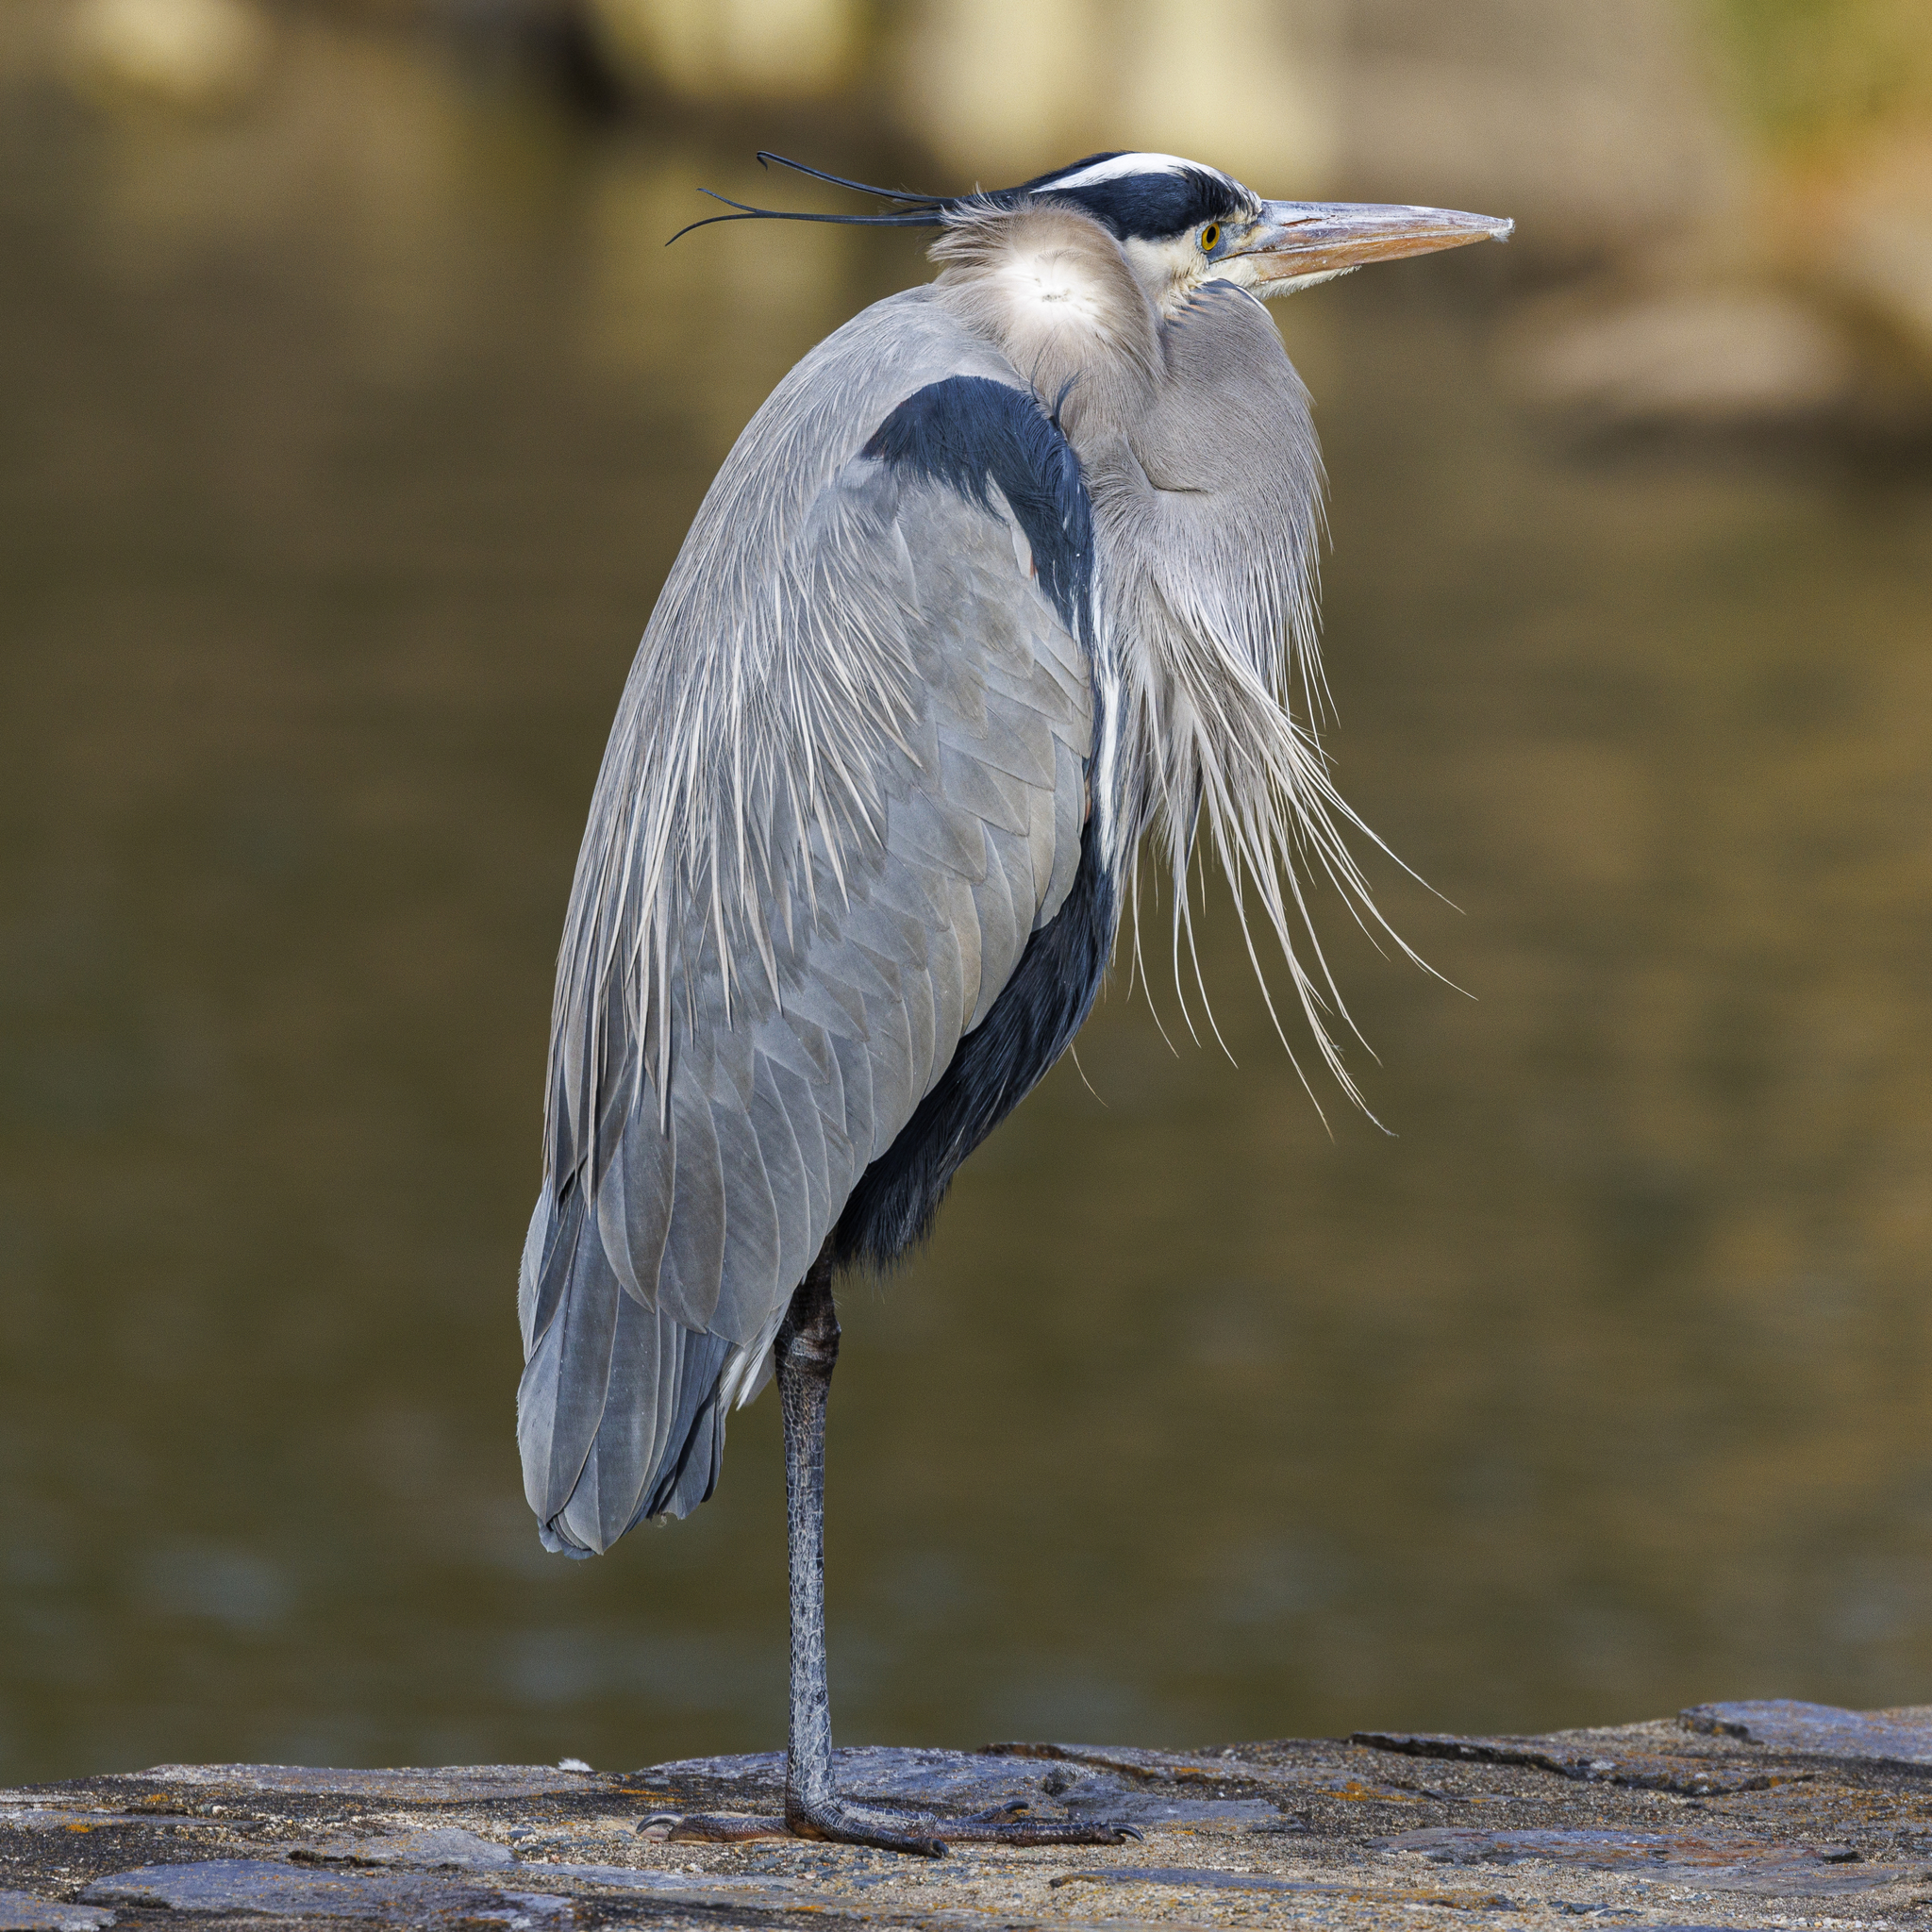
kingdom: Animalia
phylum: Chordata
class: Aves
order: Pelecaniformes
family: Ardeidae
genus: Ardea
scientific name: Ardea herodias
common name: Great blue heron
